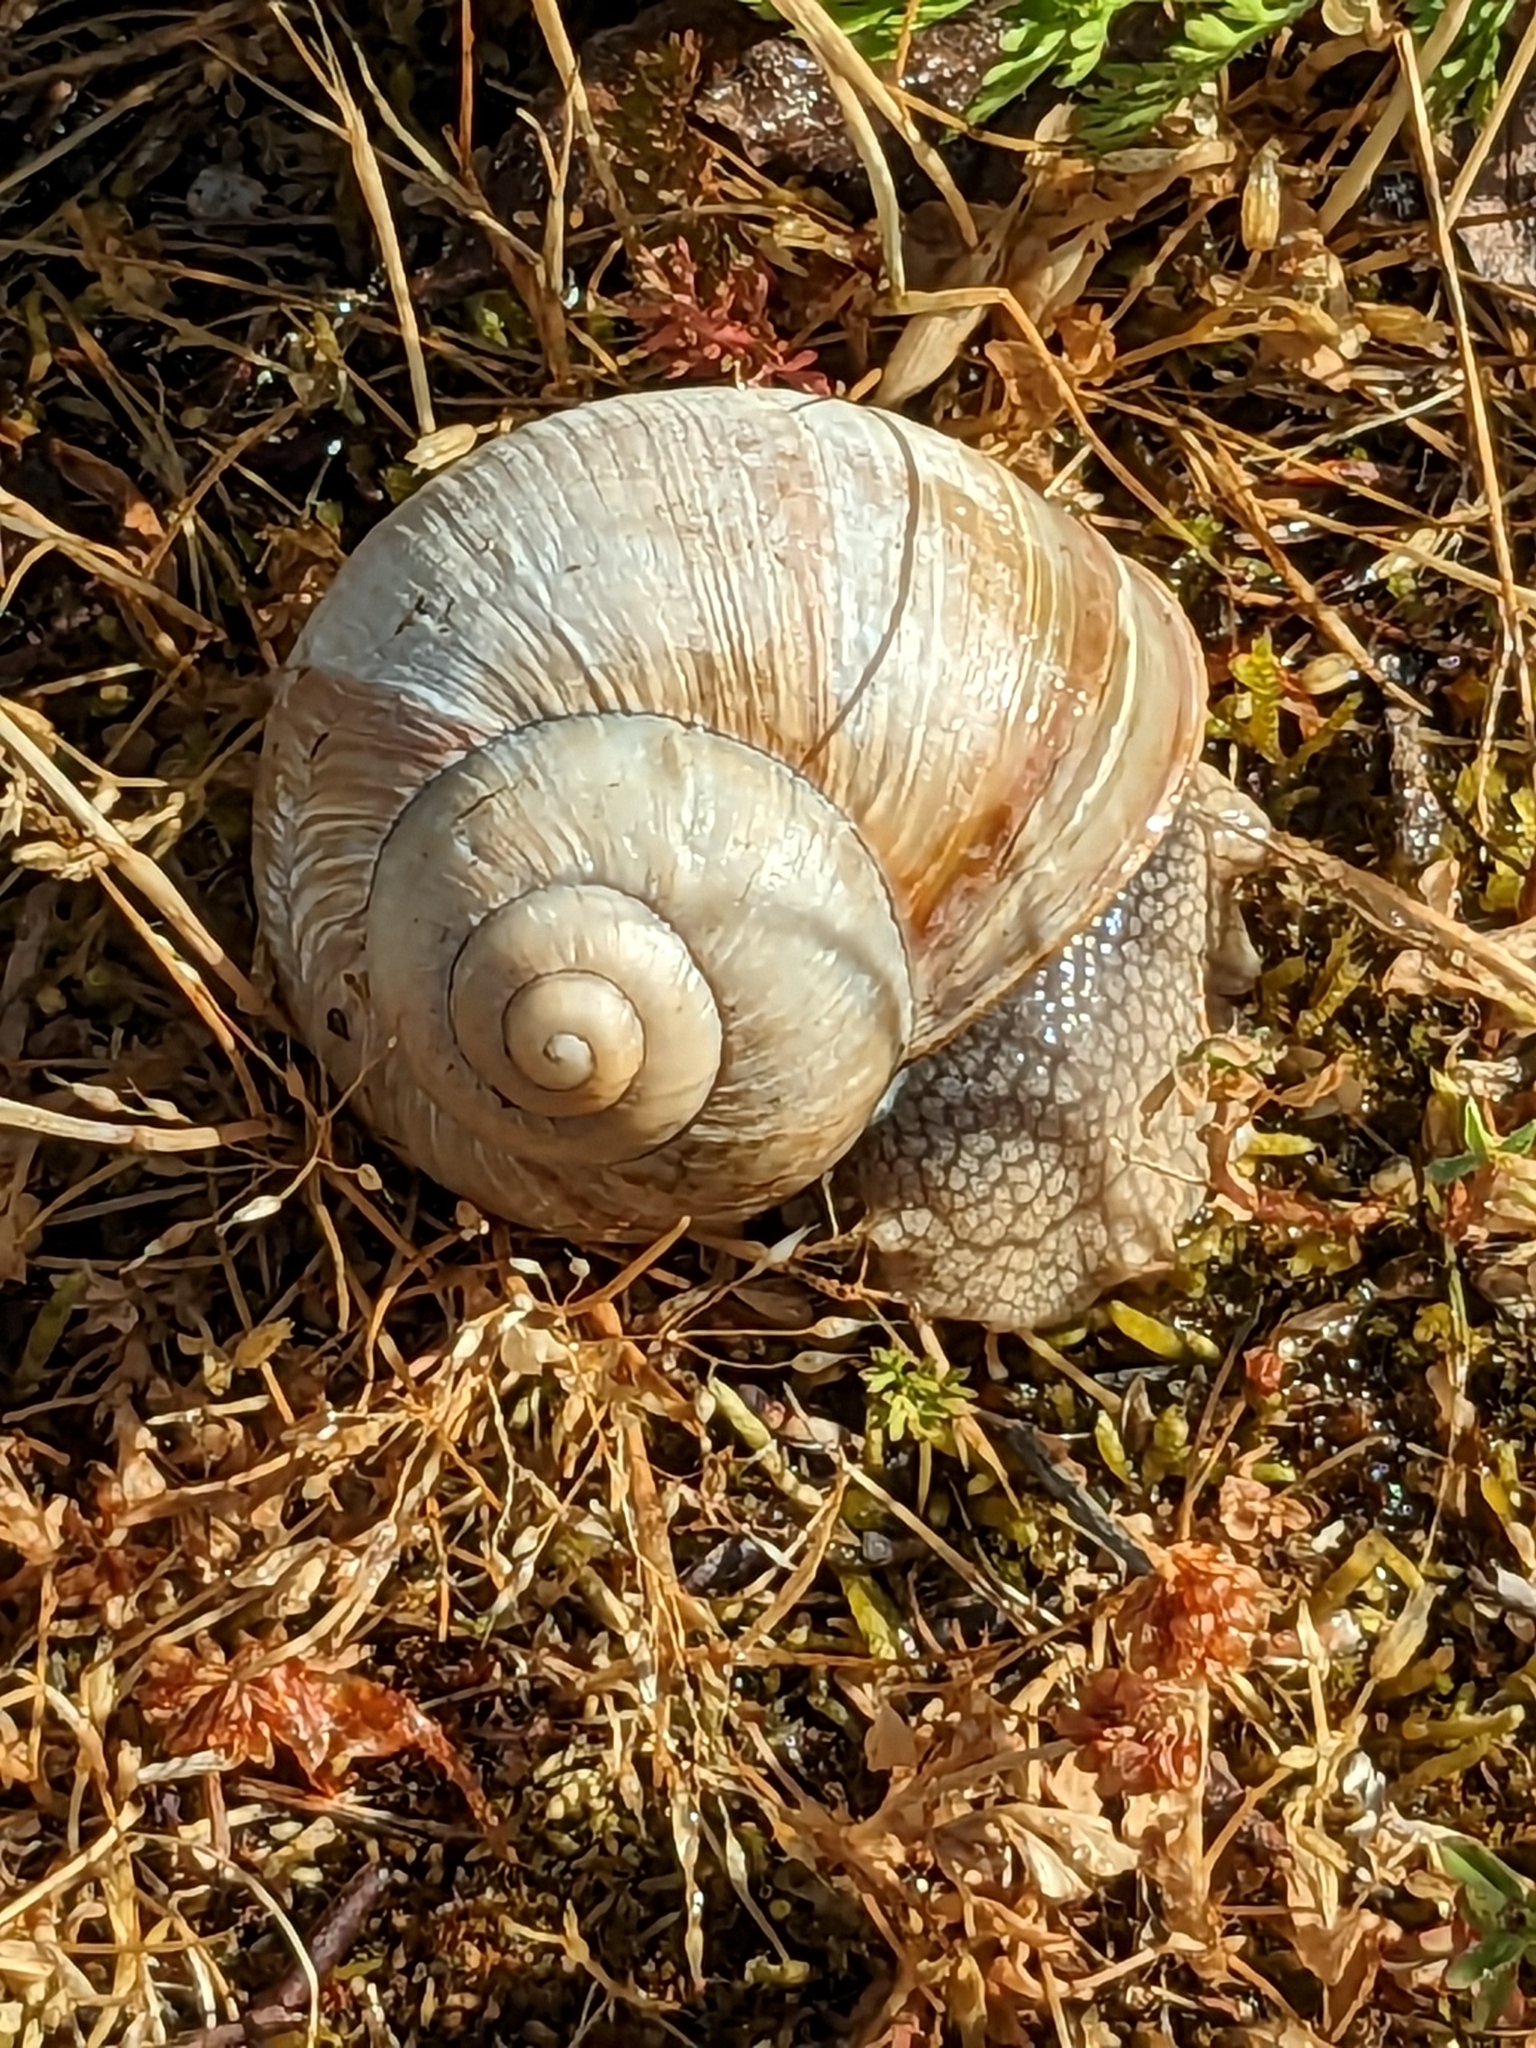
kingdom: Animalia
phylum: Mollusca
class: Gastropoda
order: Stylommatophora
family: Helicidae
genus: Helix
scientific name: Helix pomatia
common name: Roman snail
